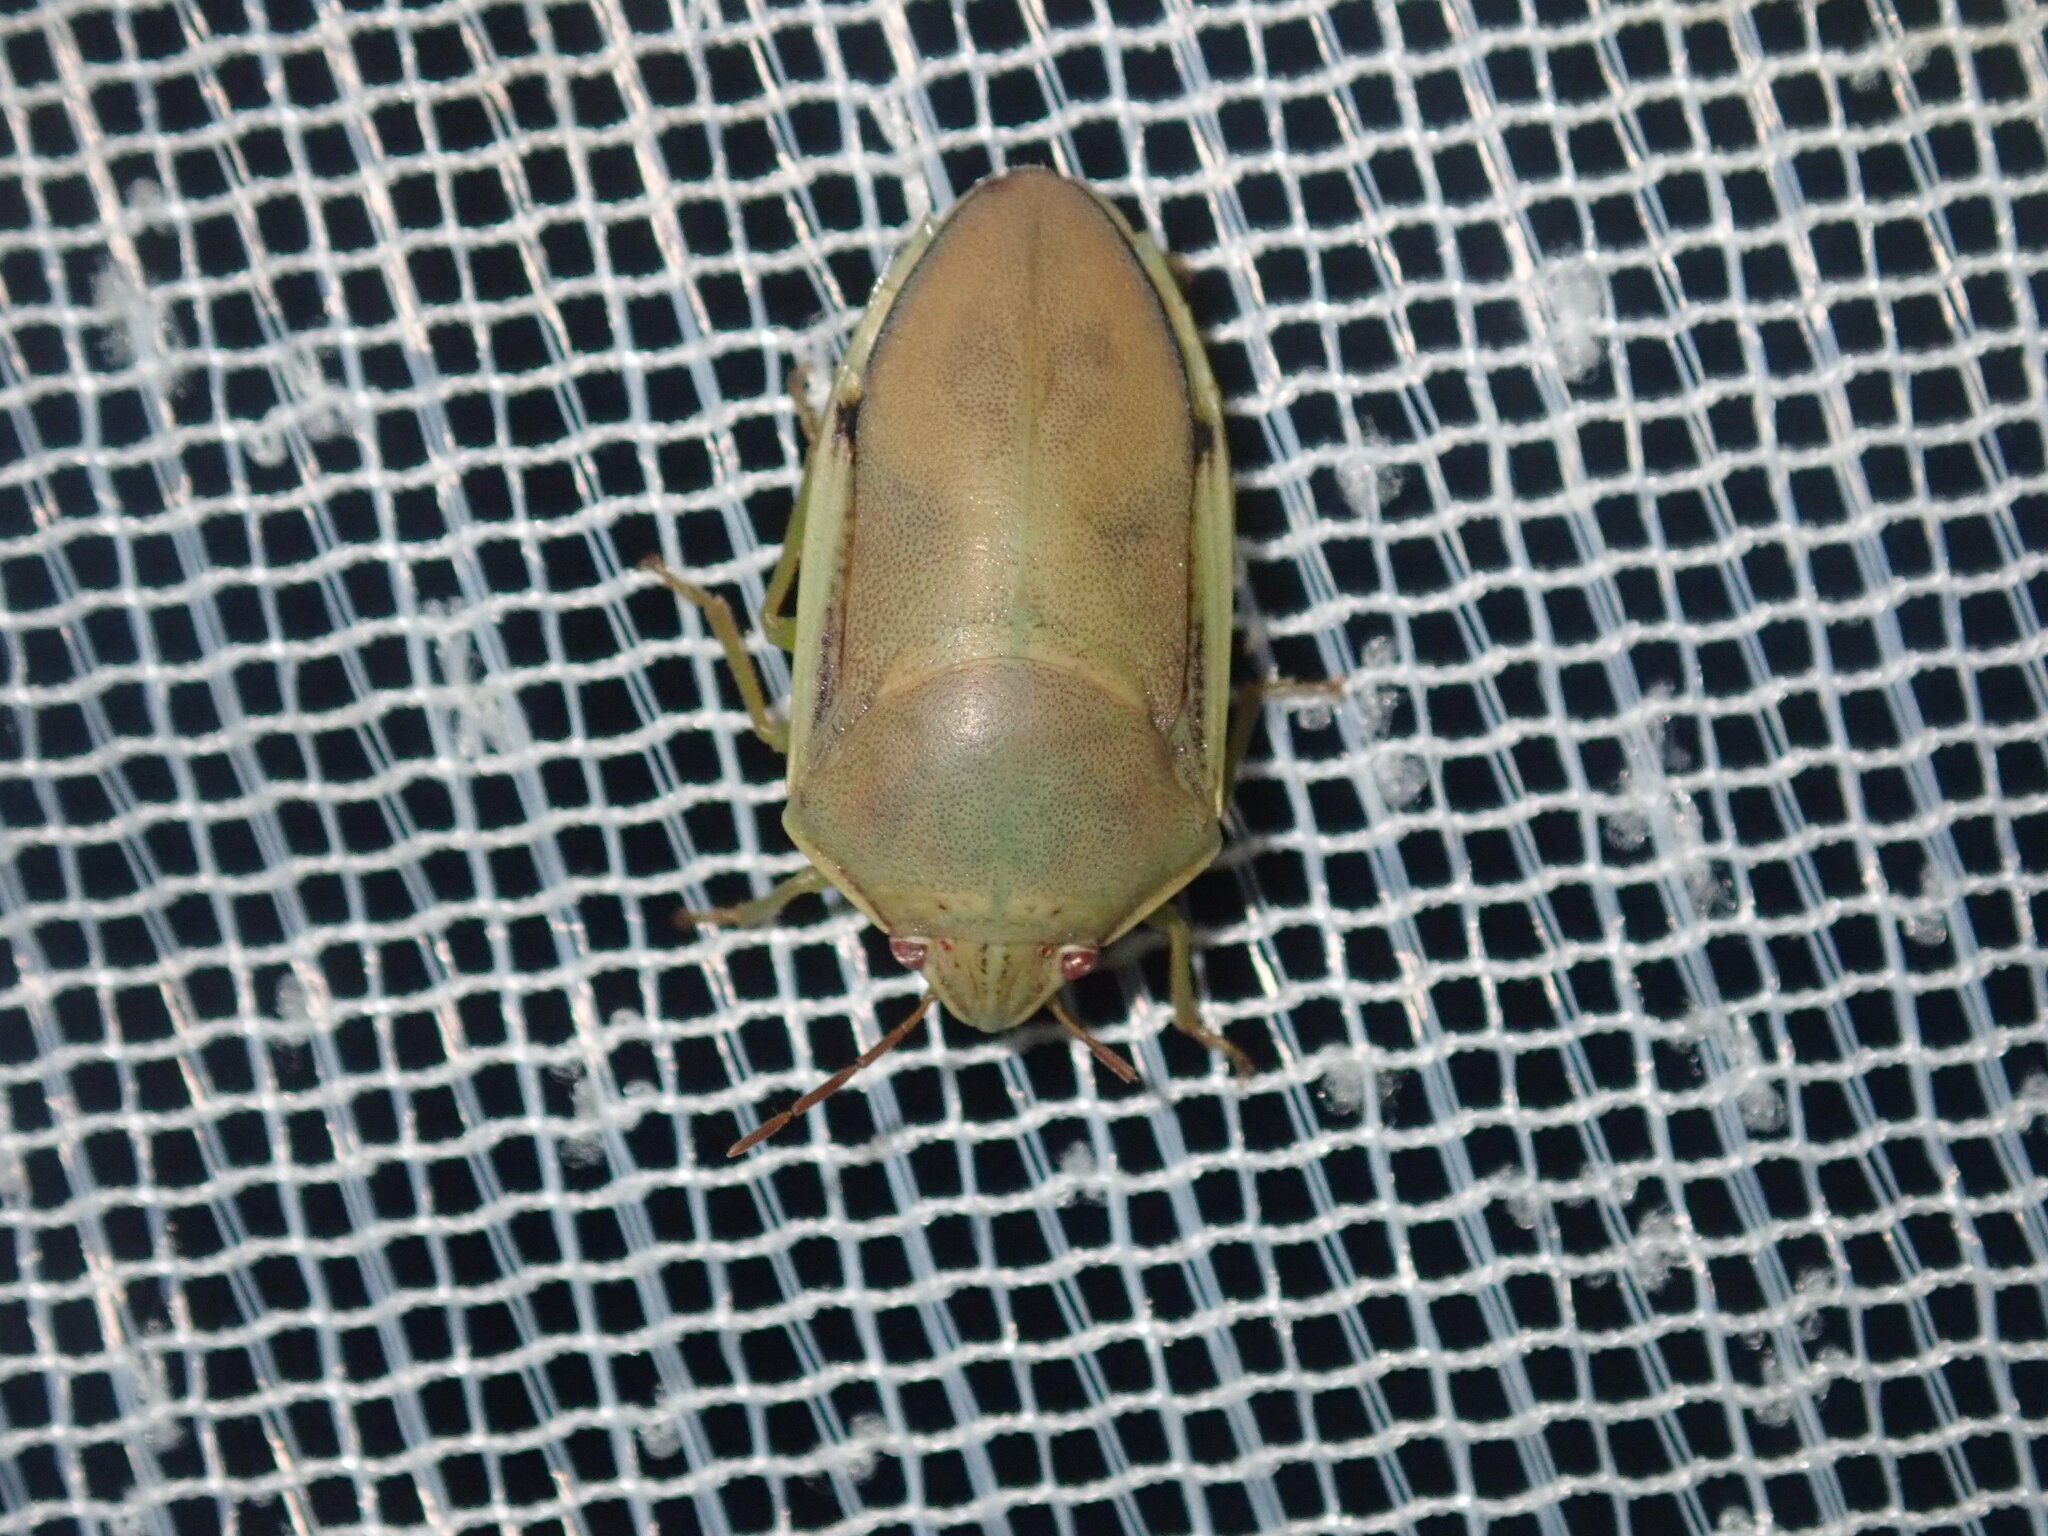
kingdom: Animalia
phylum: Arthropoda
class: Insecta
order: Hemiptera
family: Pentatomidae
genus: Coleotichus
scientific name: Coleotichus costatus
